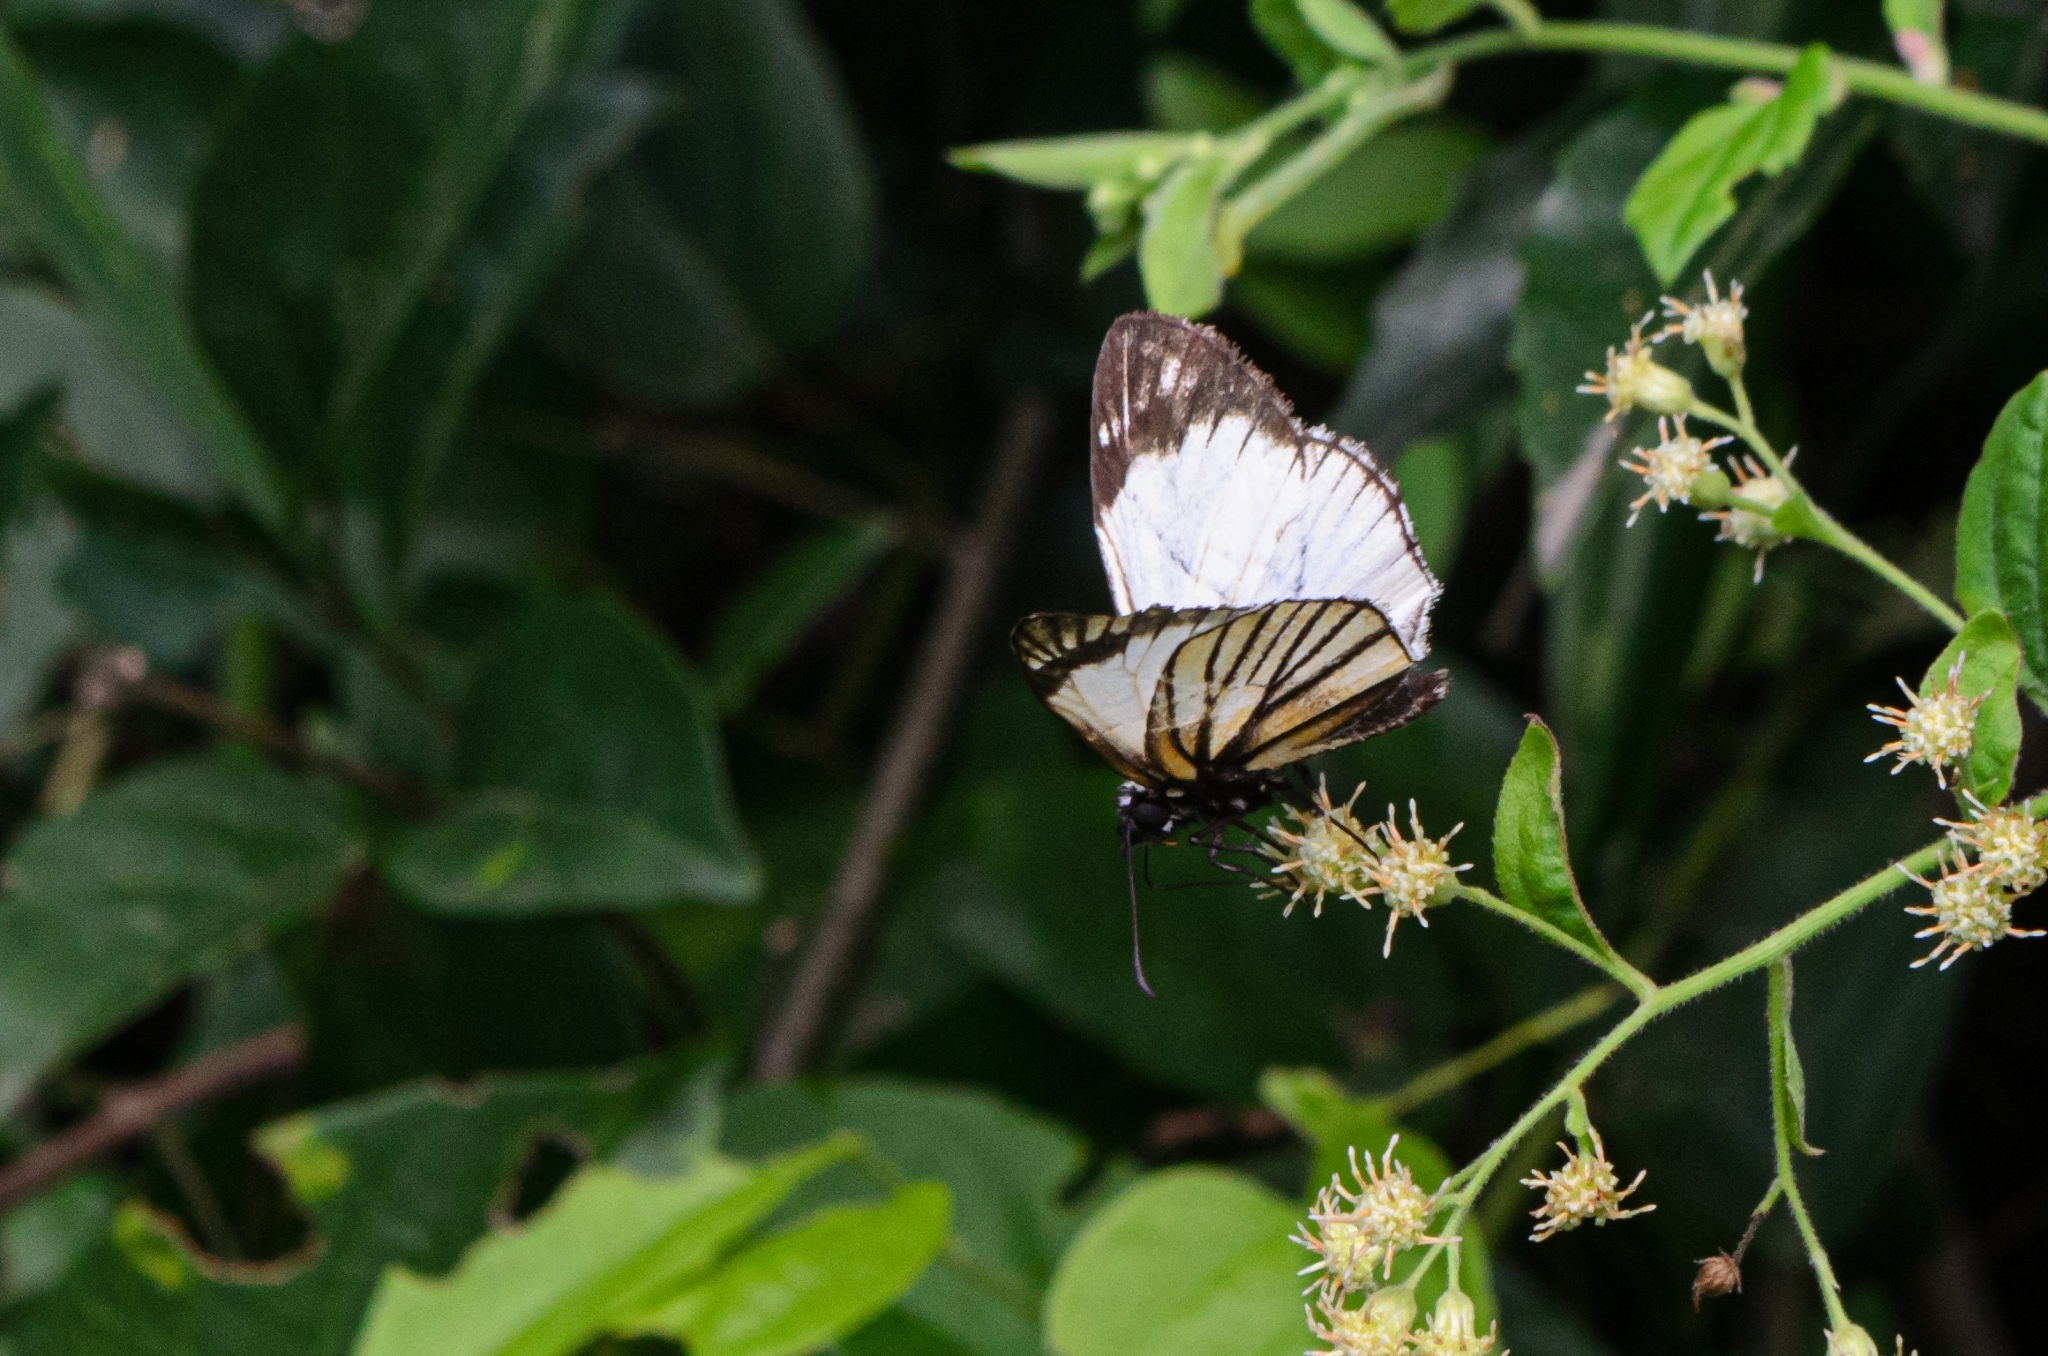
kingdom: Animalia
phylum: Arthropoda
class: Insecta
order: Lepidoptera
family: Hesperiidae
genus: Heliopetes
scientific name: Heliopetes alana
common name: Alana white-skipper
